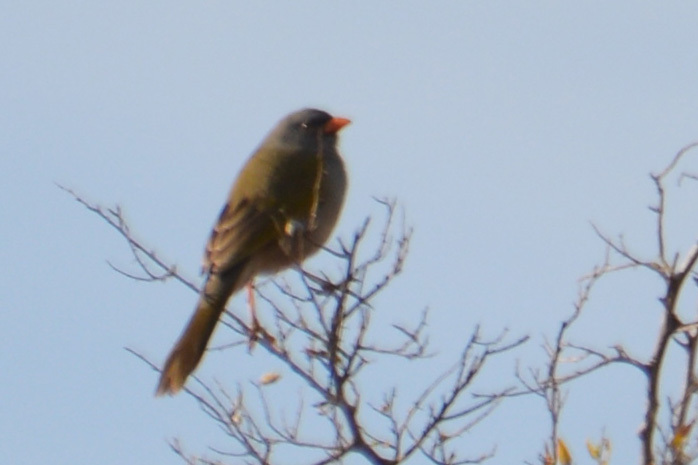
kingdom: Animalia
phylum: Chordata
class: Aves
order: Passeriformes
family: Thraupidae
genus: Embernagra
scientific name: Embernagra platensis
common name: Pampa finch
